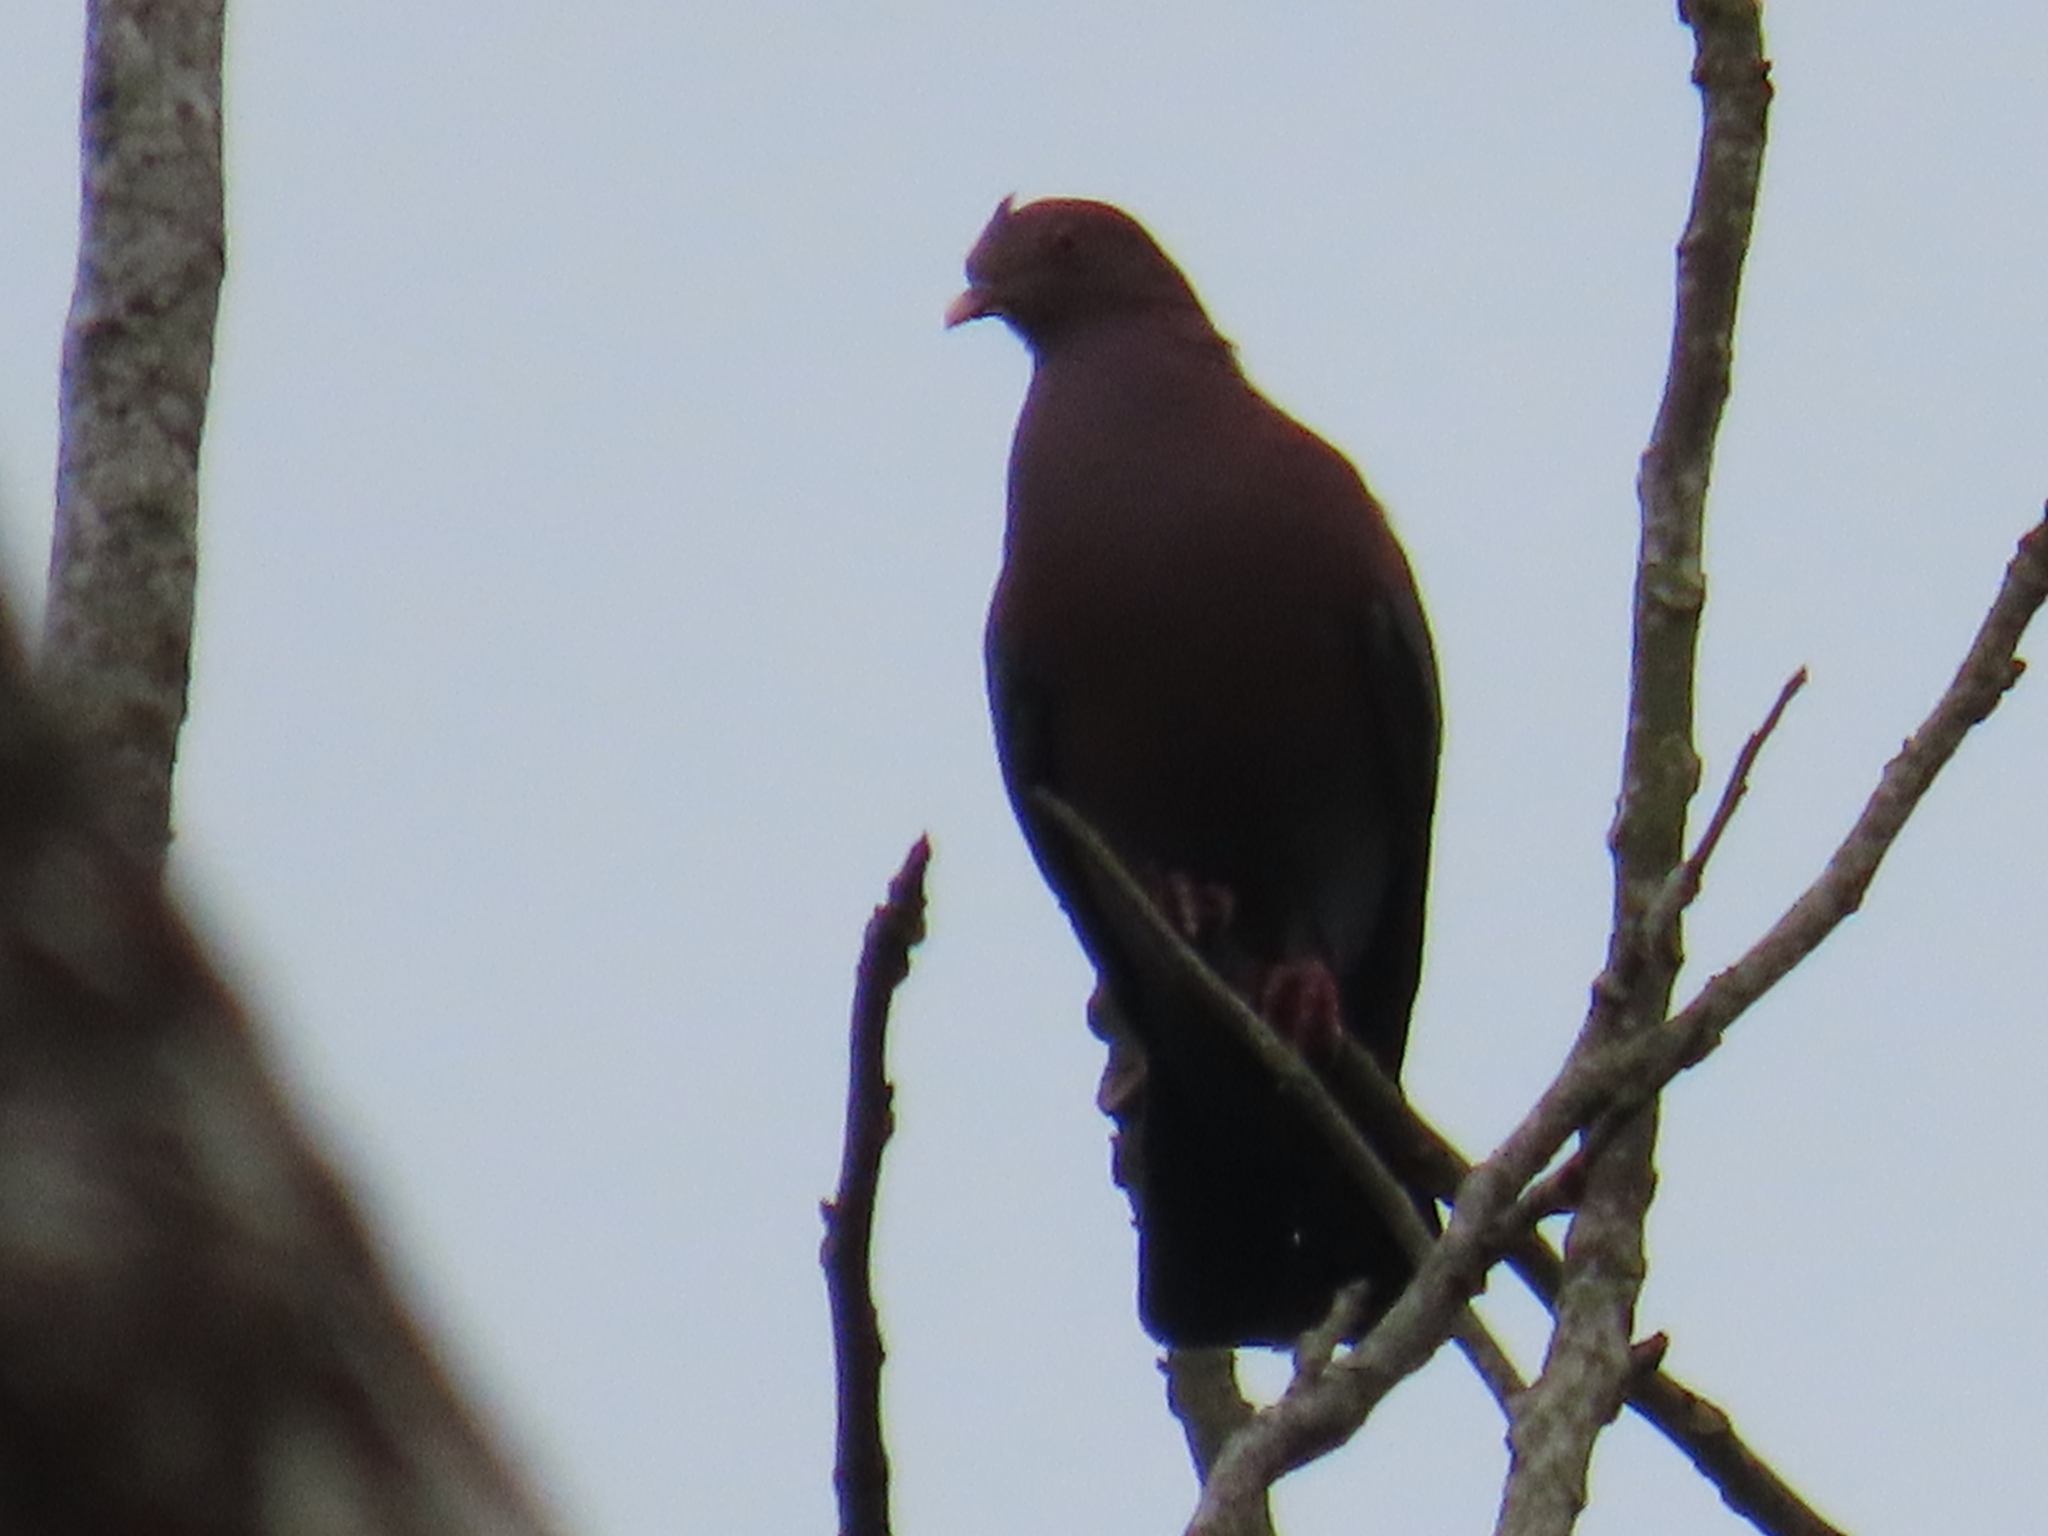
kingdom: Animalia
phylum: Chordata
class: Aves
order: Columbiformes
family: Columbidae
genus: Patagioenas
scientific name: Patagioenas flavirostris
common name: Red-billed pigeon
